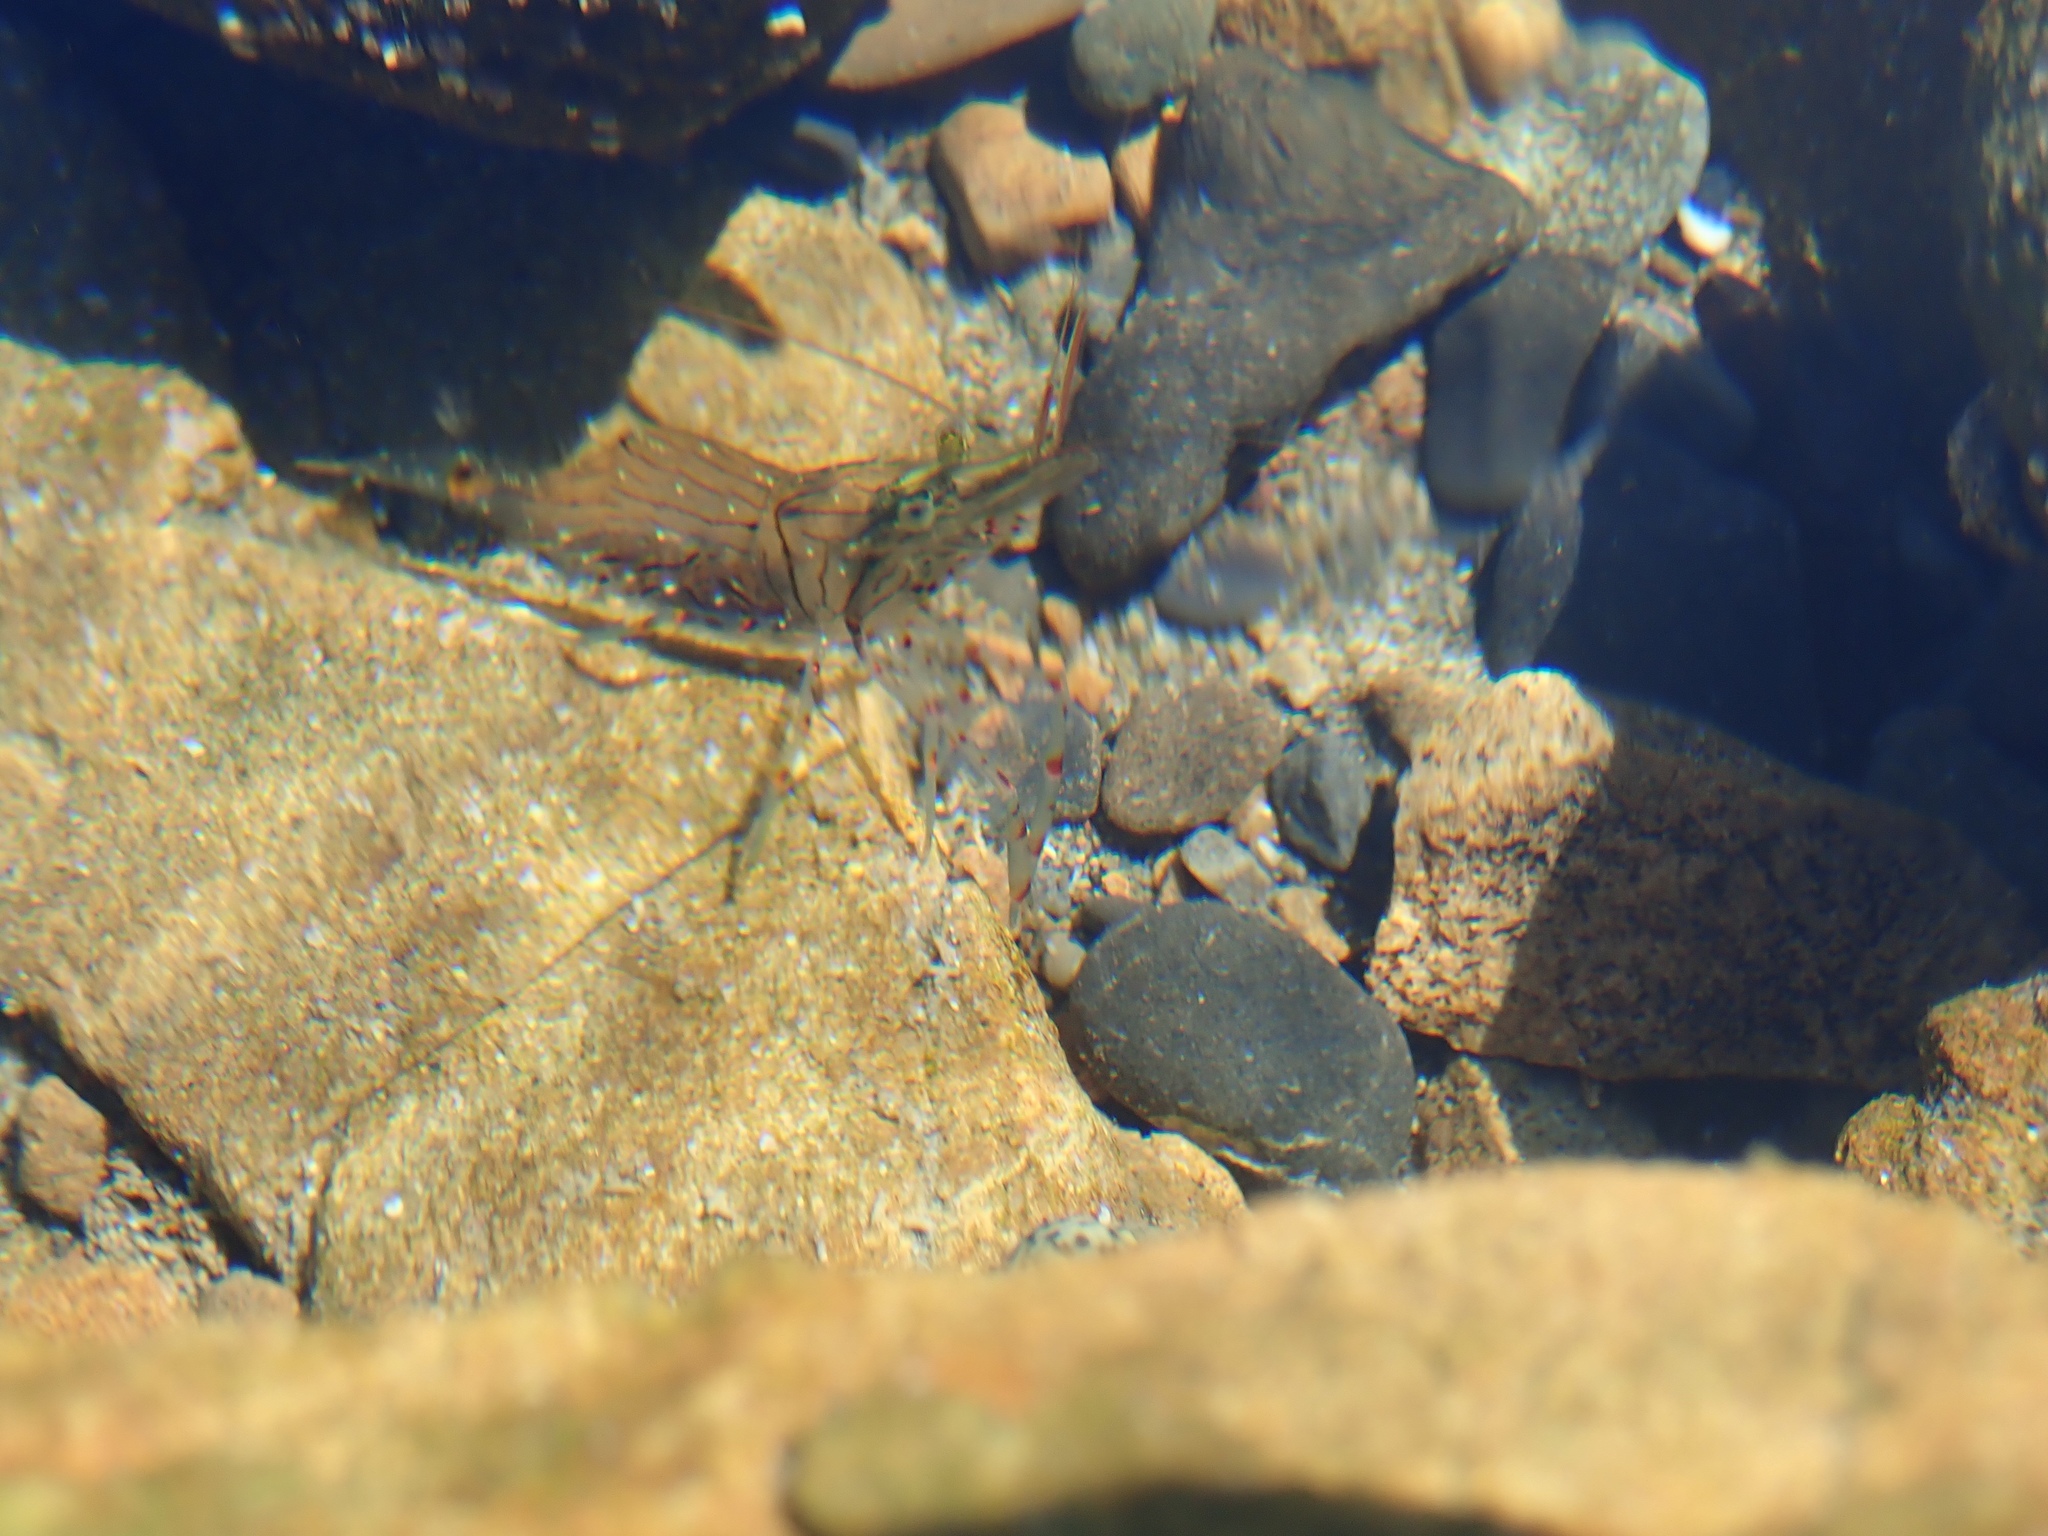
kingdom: Animalia
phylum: Arthropoda
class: Malacostraca
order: Decapoda
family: Palaemonidae
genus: Palaemon
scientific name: Palaemon affinis
